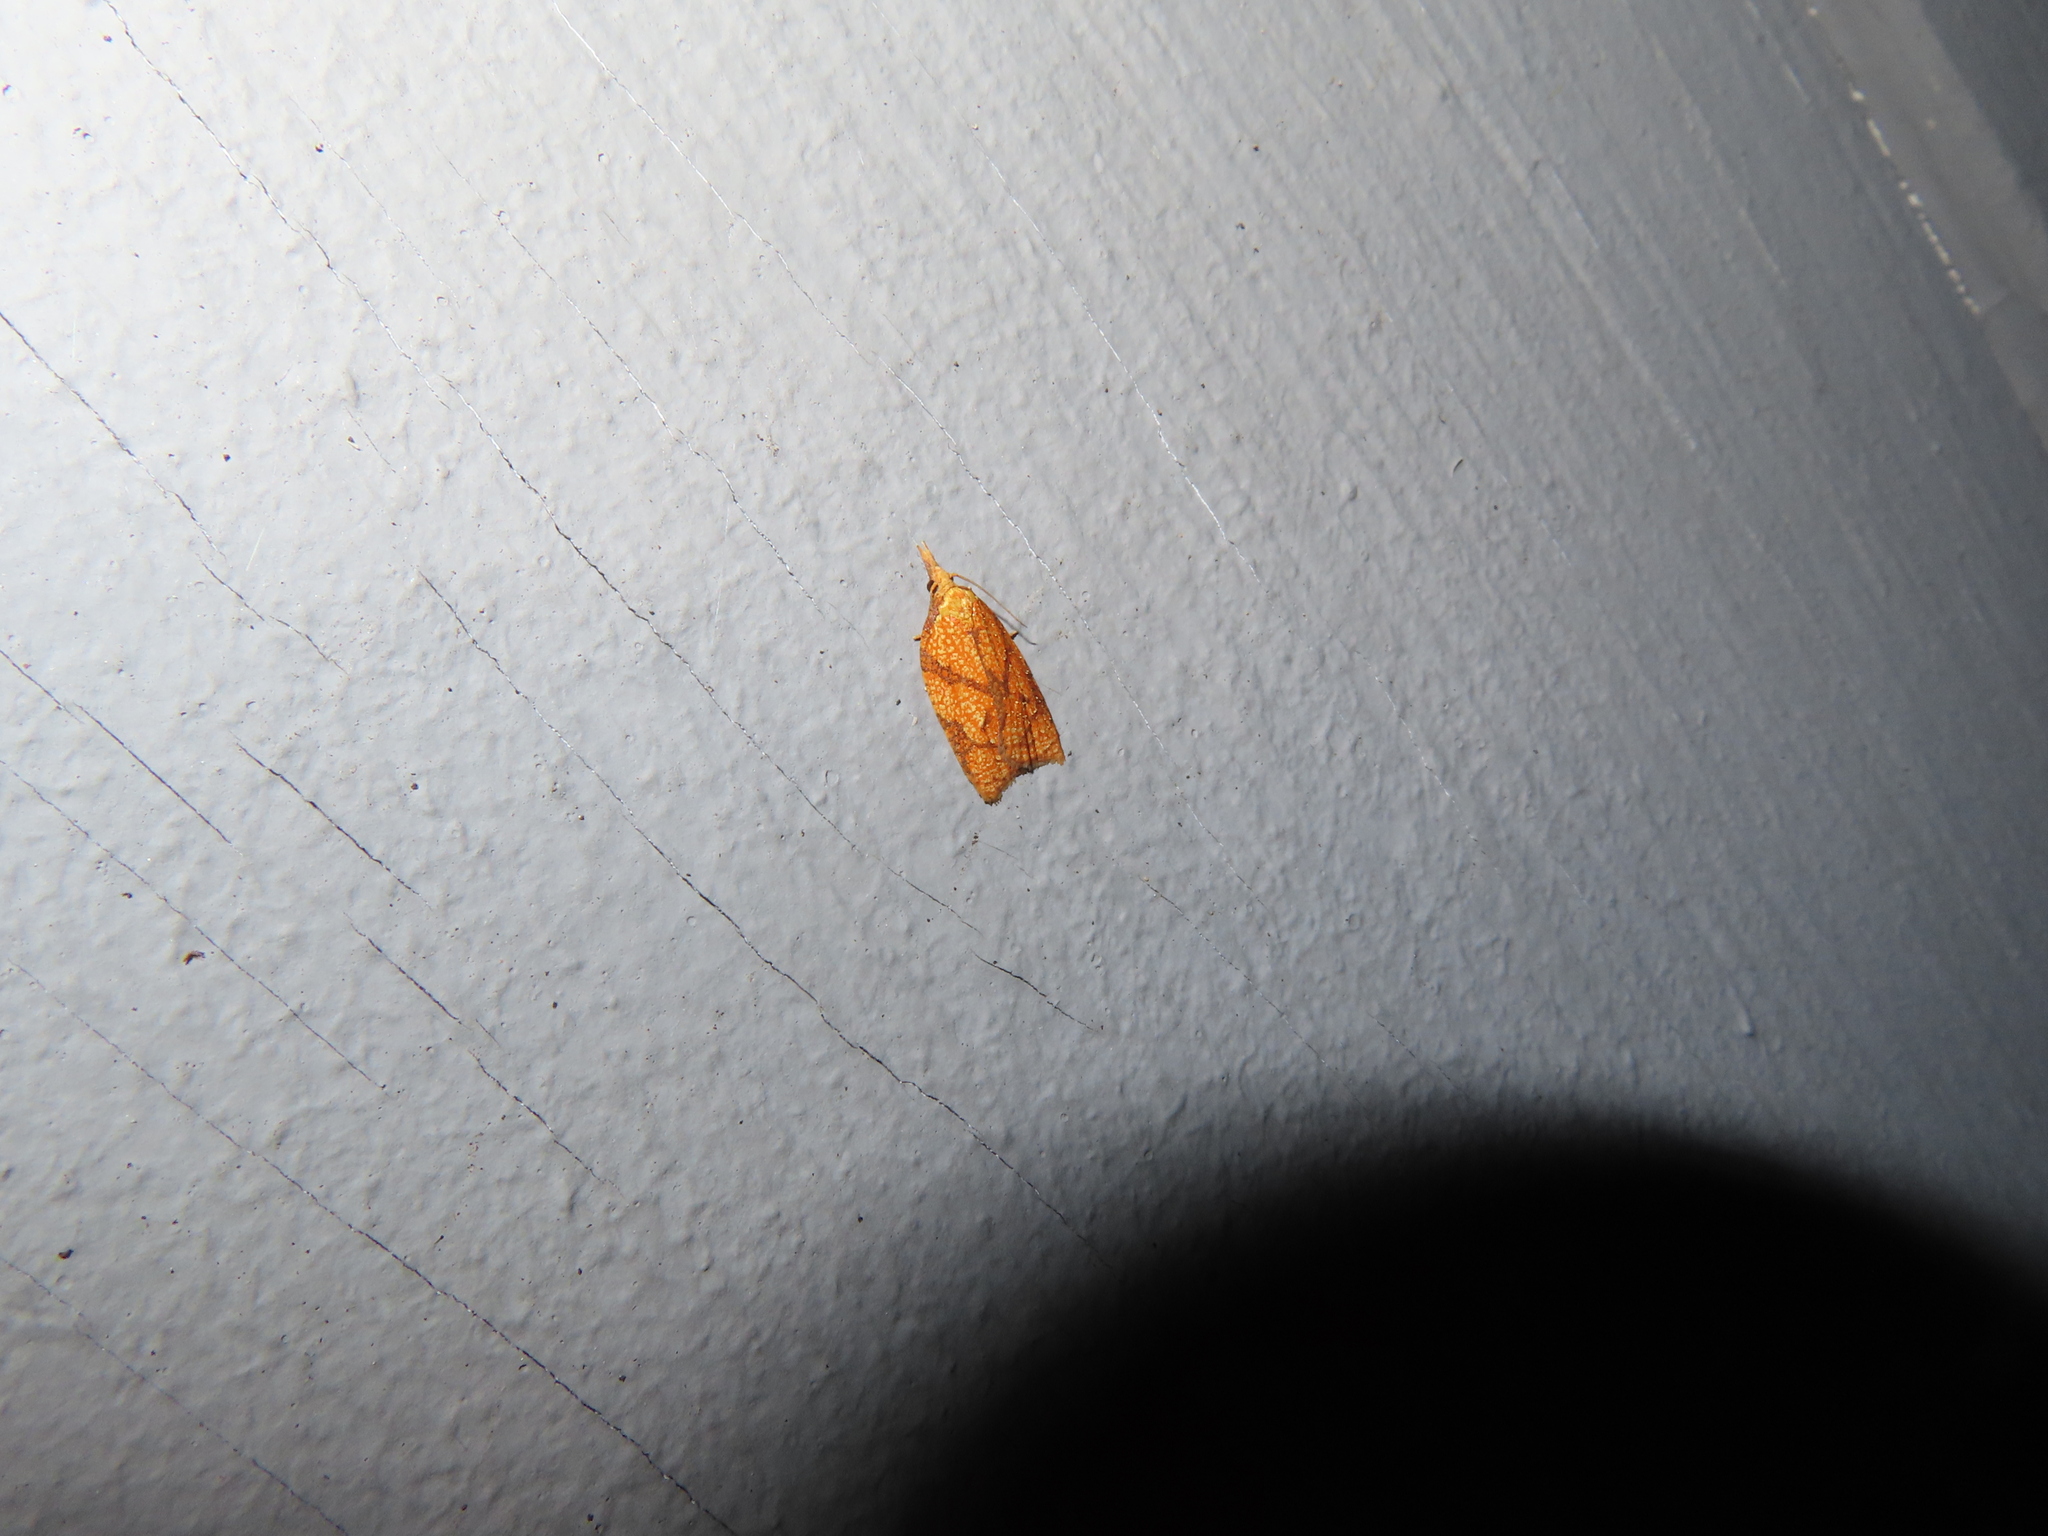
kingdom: Animalia
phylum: Arthropoda
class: Insecta
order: Lepidoptera
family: Tortricidae
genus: Sparganothis
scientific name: Sparganothis sulfureana
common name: Sparganothis fruitworm moth
